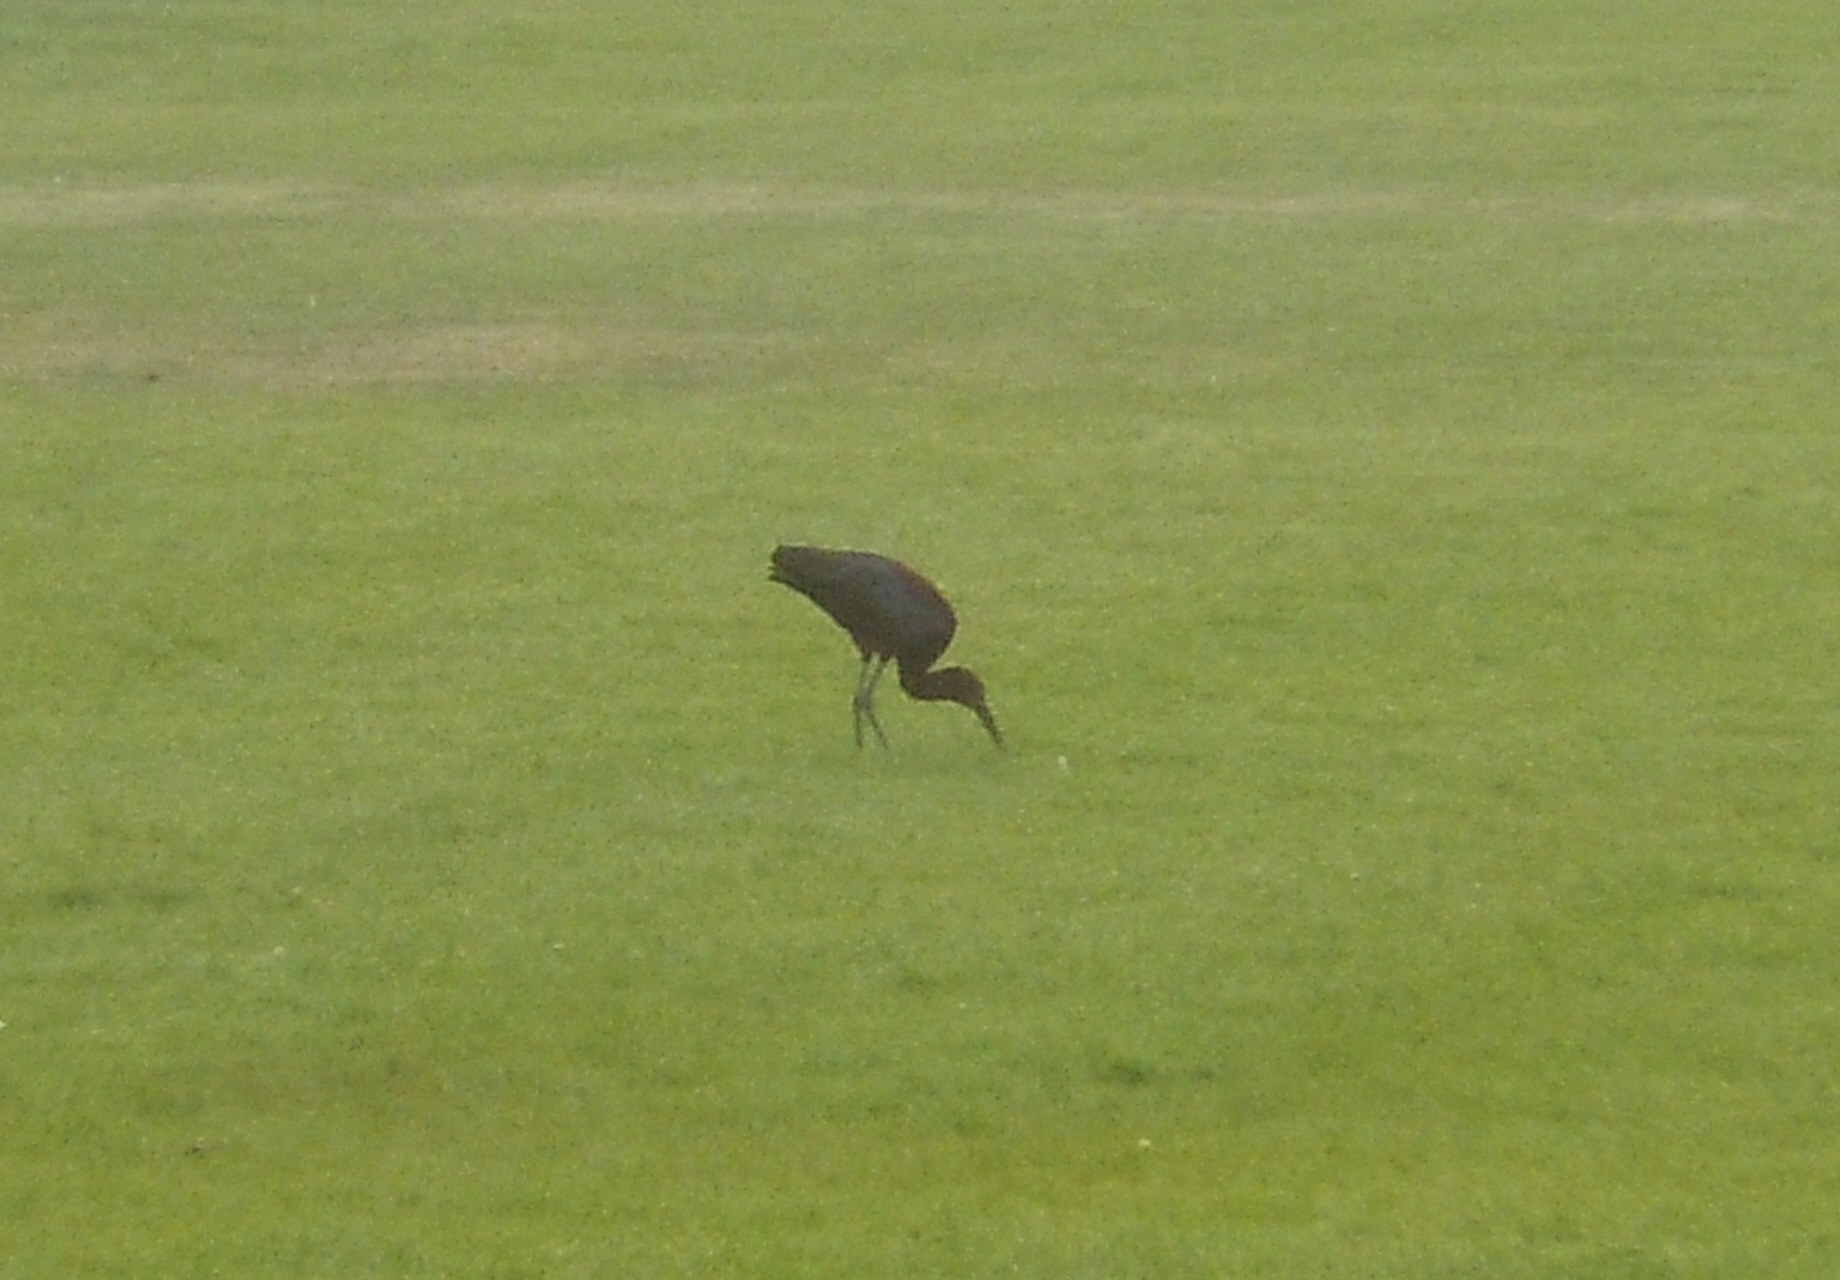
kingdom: Animalia
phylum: Chordata
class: Aves
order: Pelecaniformes
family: Threskiornithidae
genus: Plegadis
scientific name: Plegadis chihi
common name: White-faced ibis
